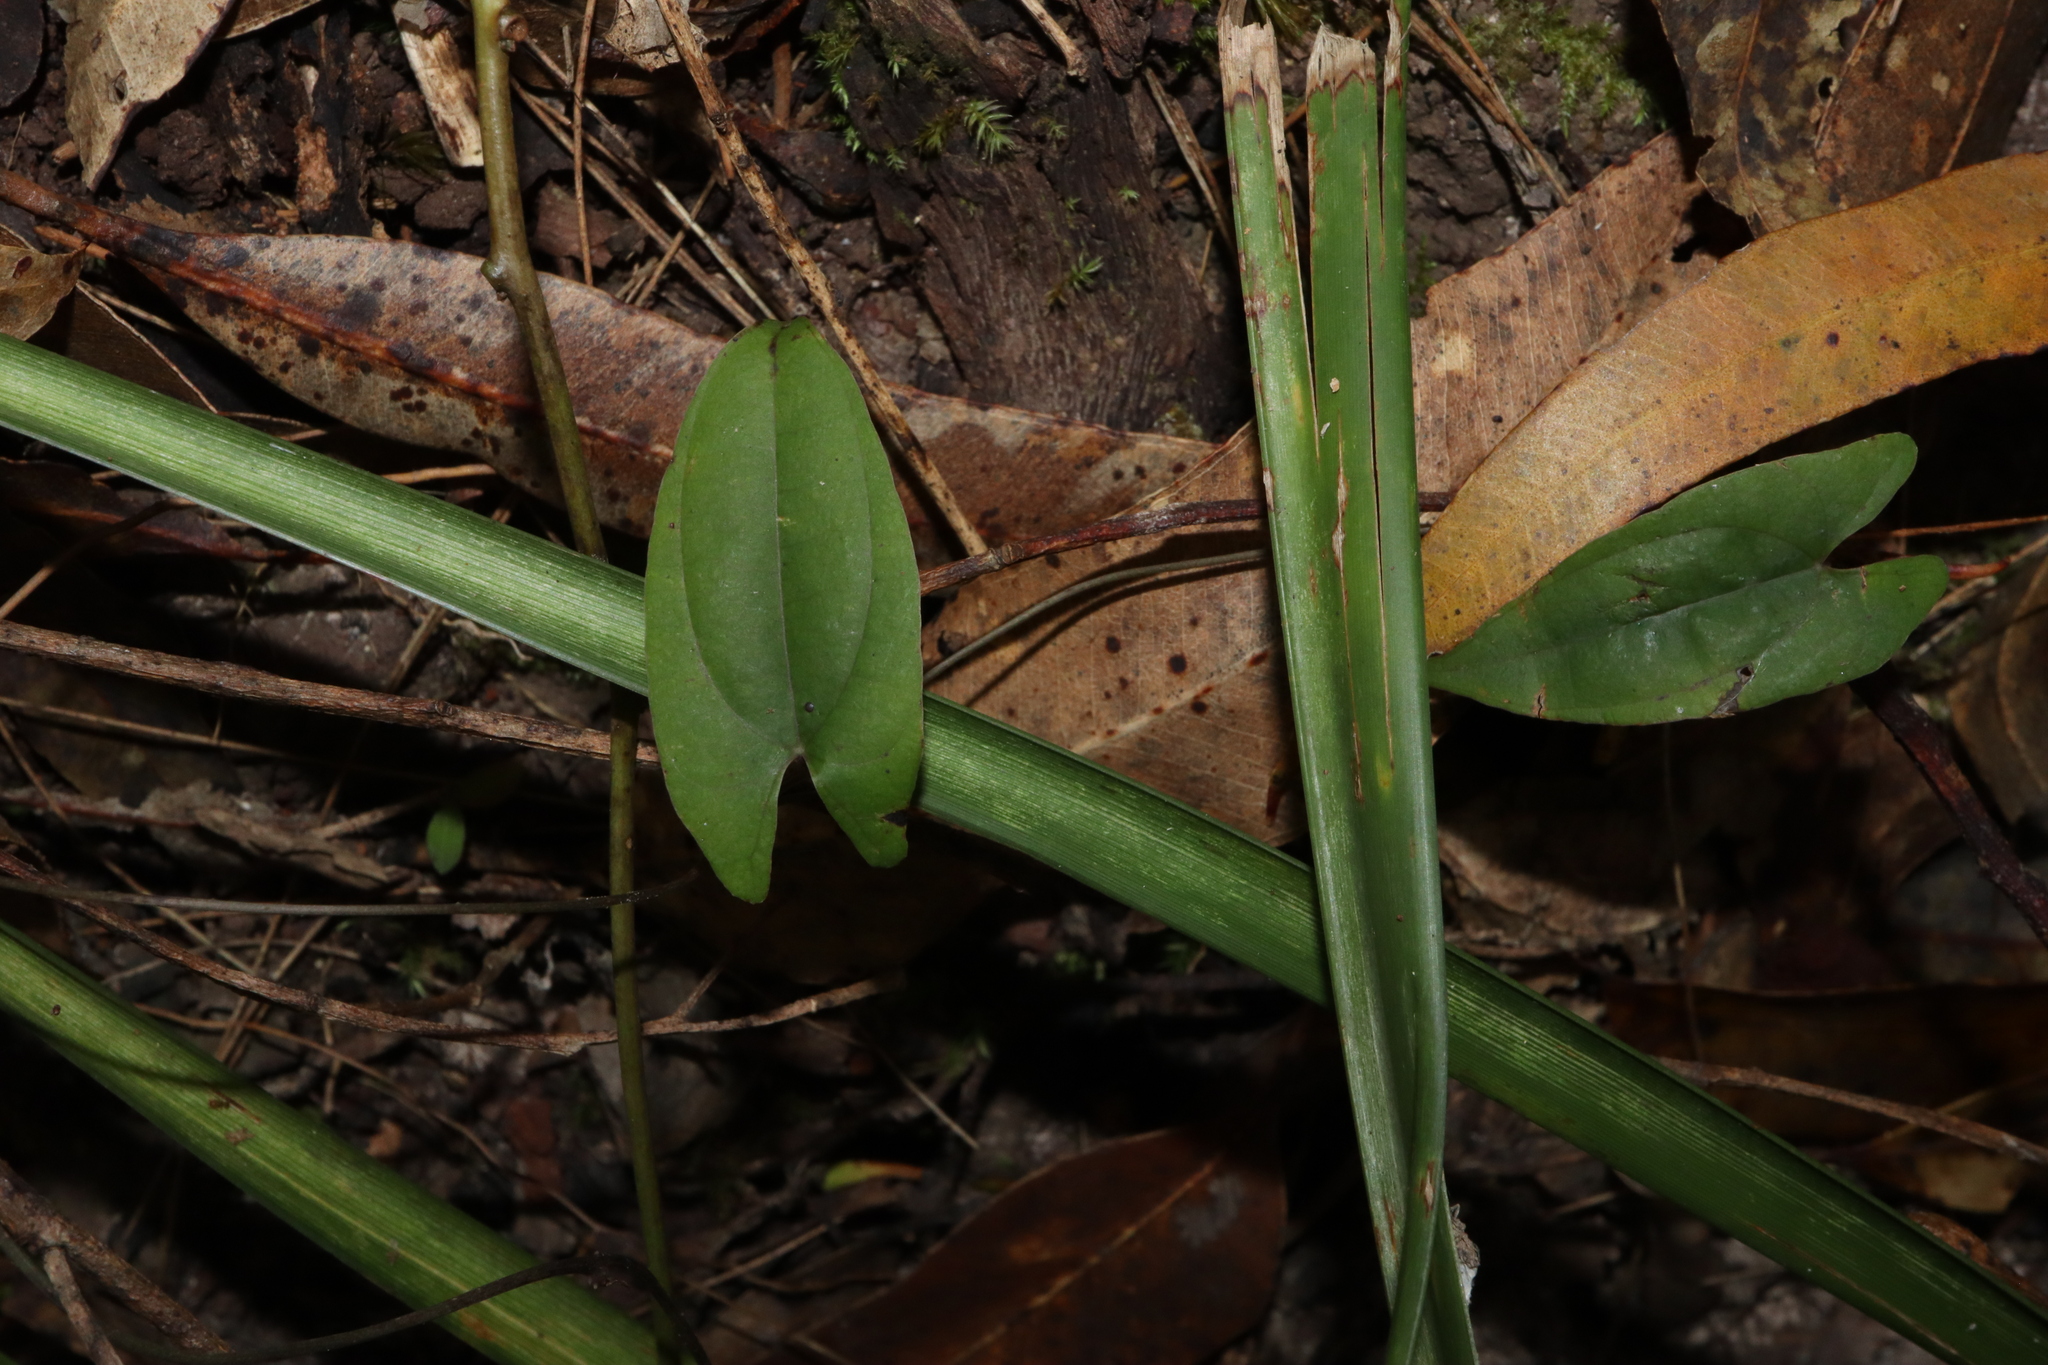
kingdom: Plantae
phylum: Tracheophyta
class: Liliopsida
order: Dioscoreales
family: Dioscoreaceae
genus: Dioscorea
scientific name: Dioscorea transversa
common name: Long yam
